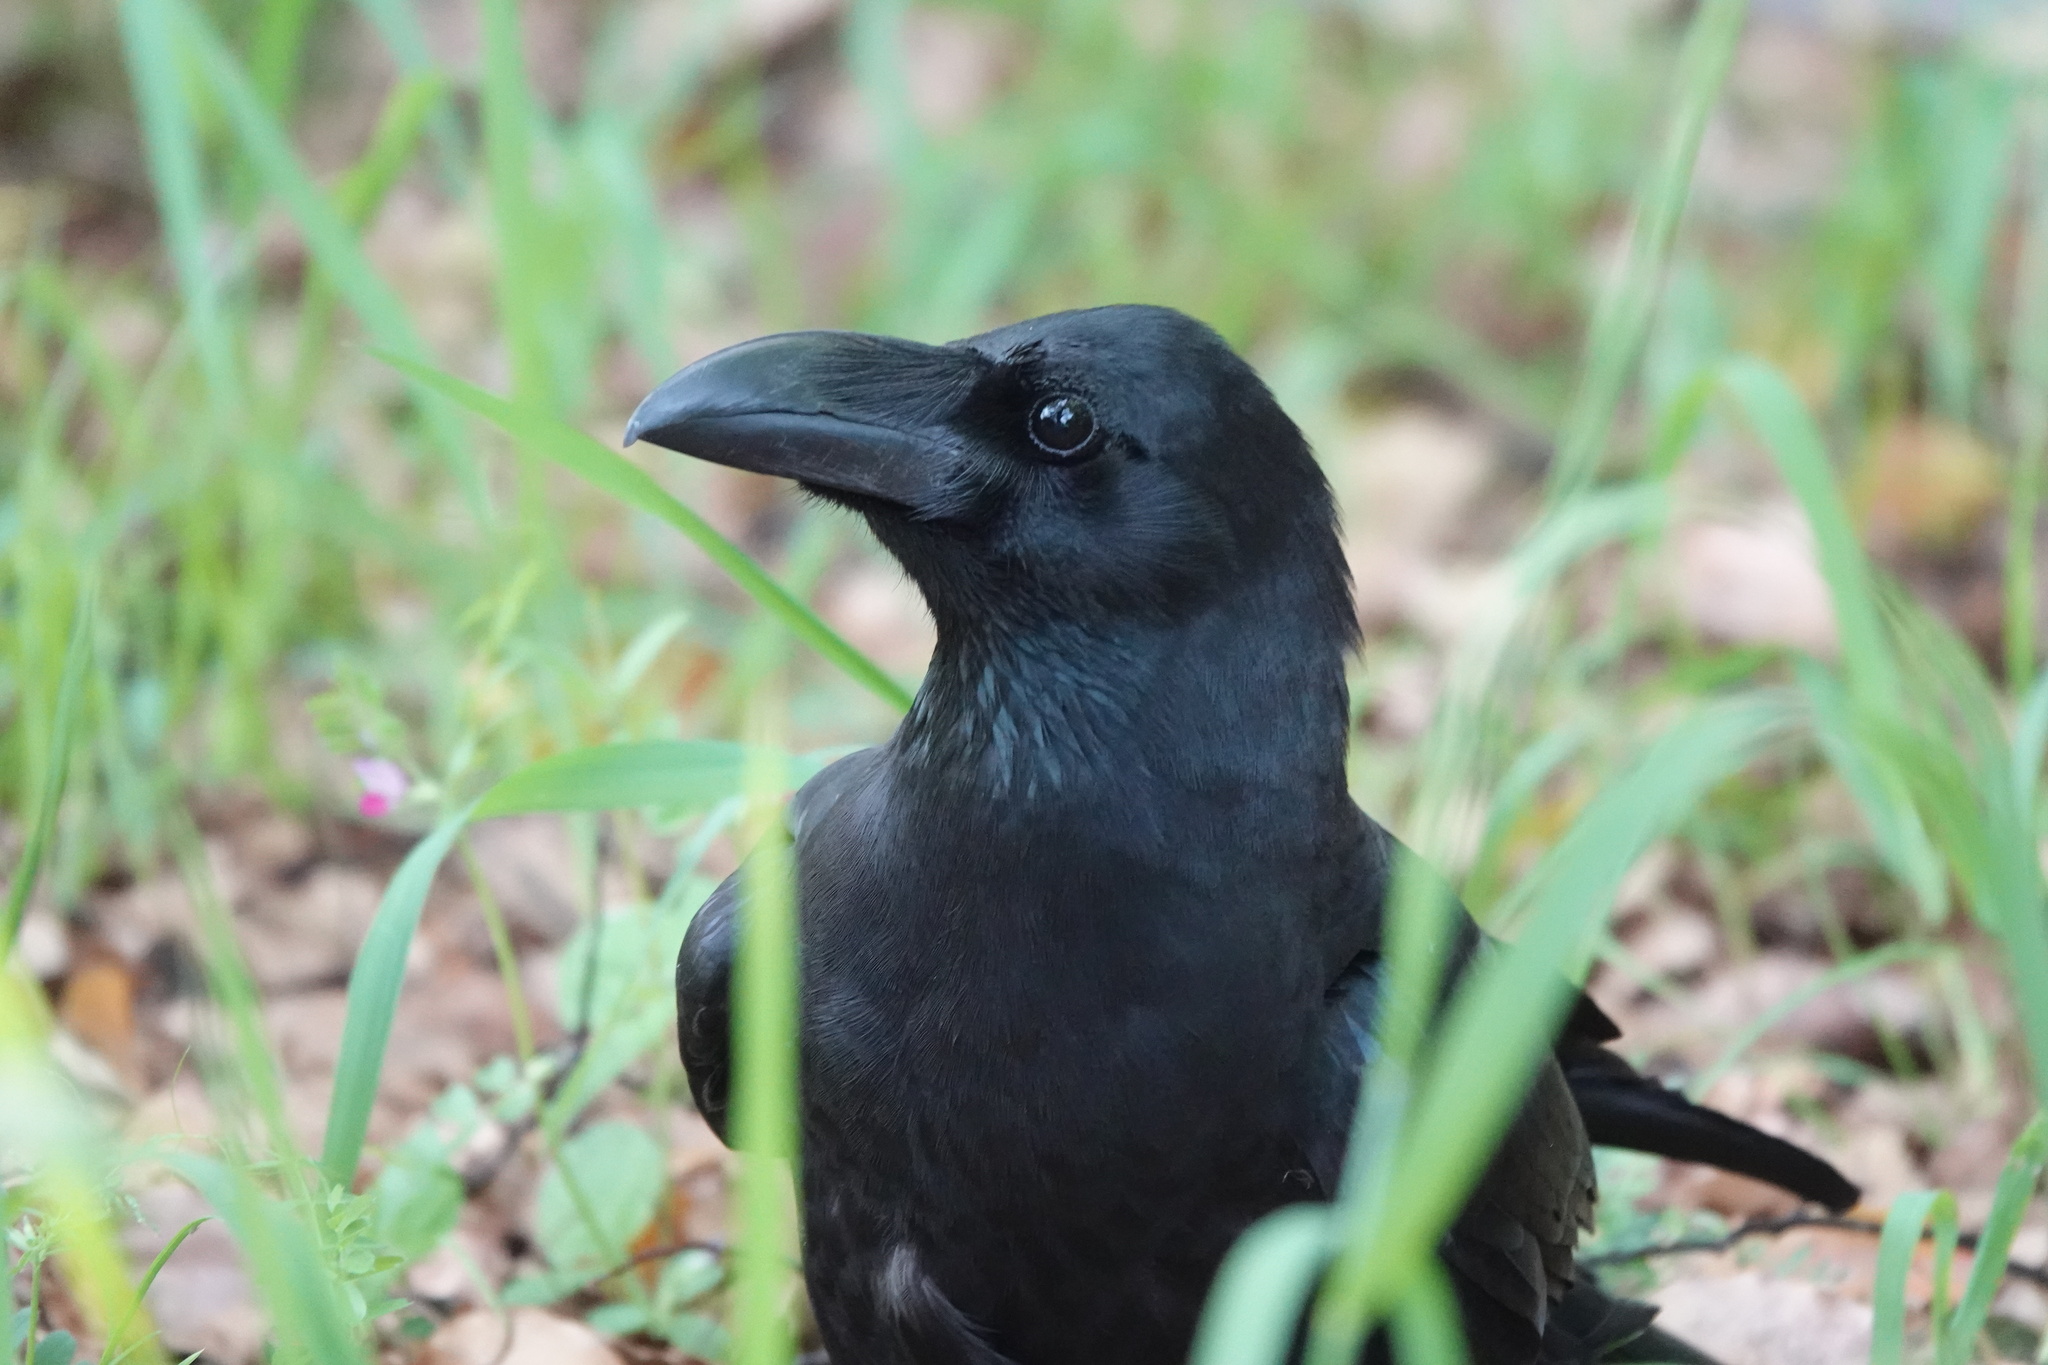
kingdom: Animalia
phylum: Chordata
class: Aves
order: Passeriformes
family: Corvidae
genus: Corvus
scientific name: Corvus macrorhynchos
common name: Large-billed crow
